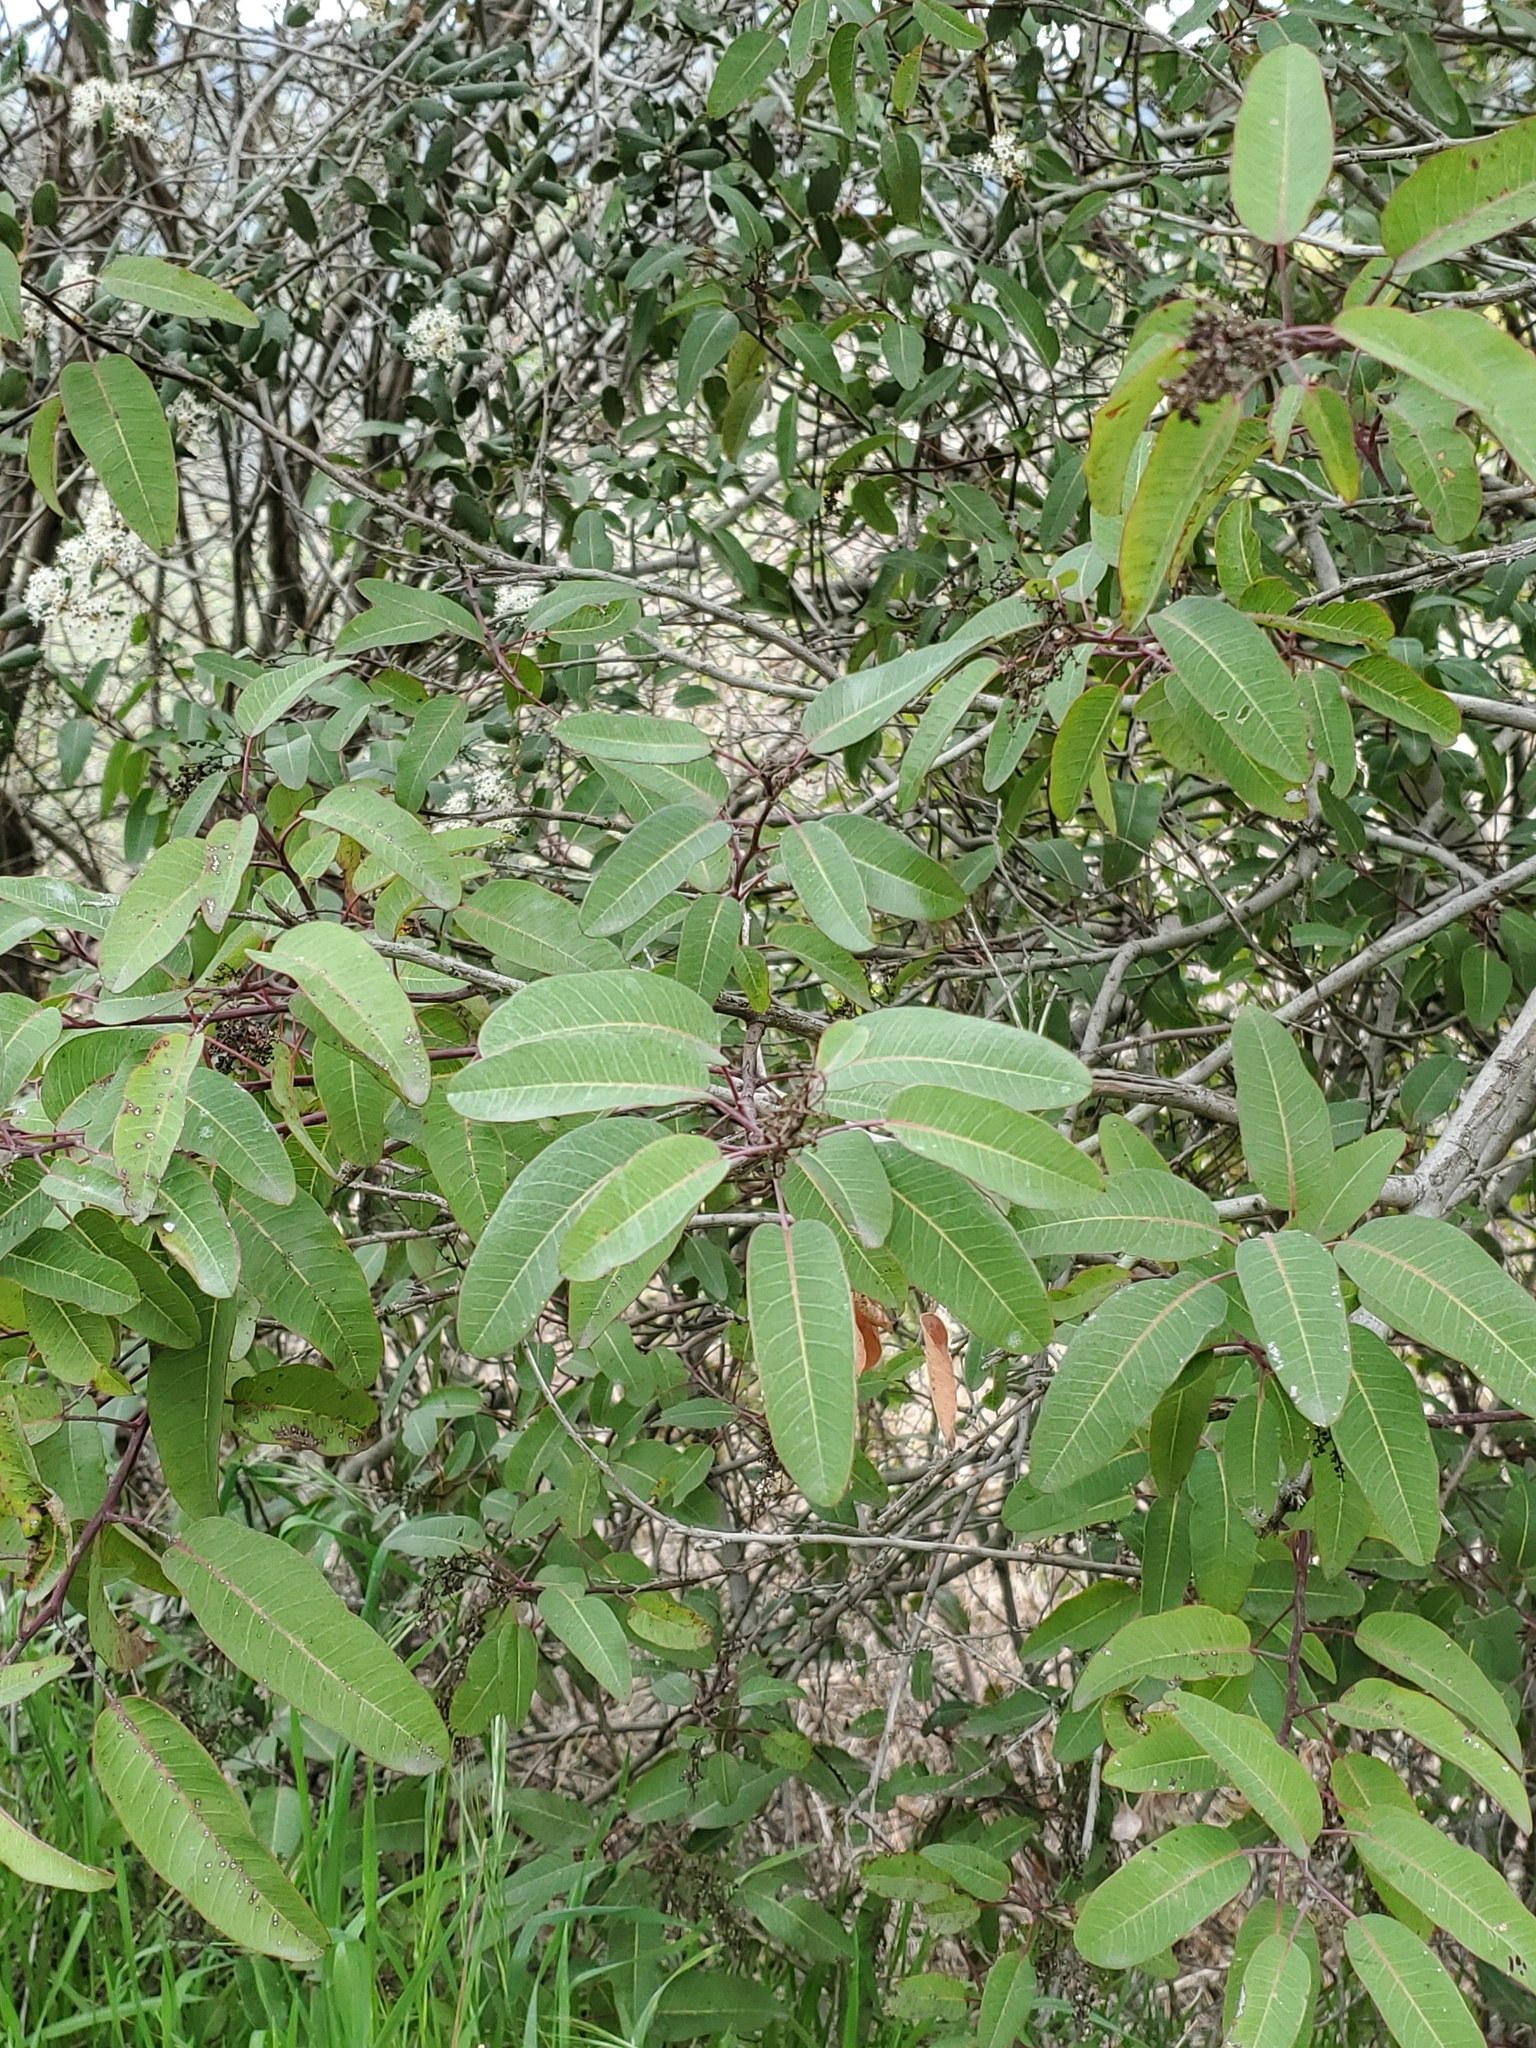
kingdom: Plantae
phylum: Tracheophyta
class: Magnoliopsida
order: Sapindales
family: Anacardiaceae
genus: Malosma
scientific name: Malosma laurina
